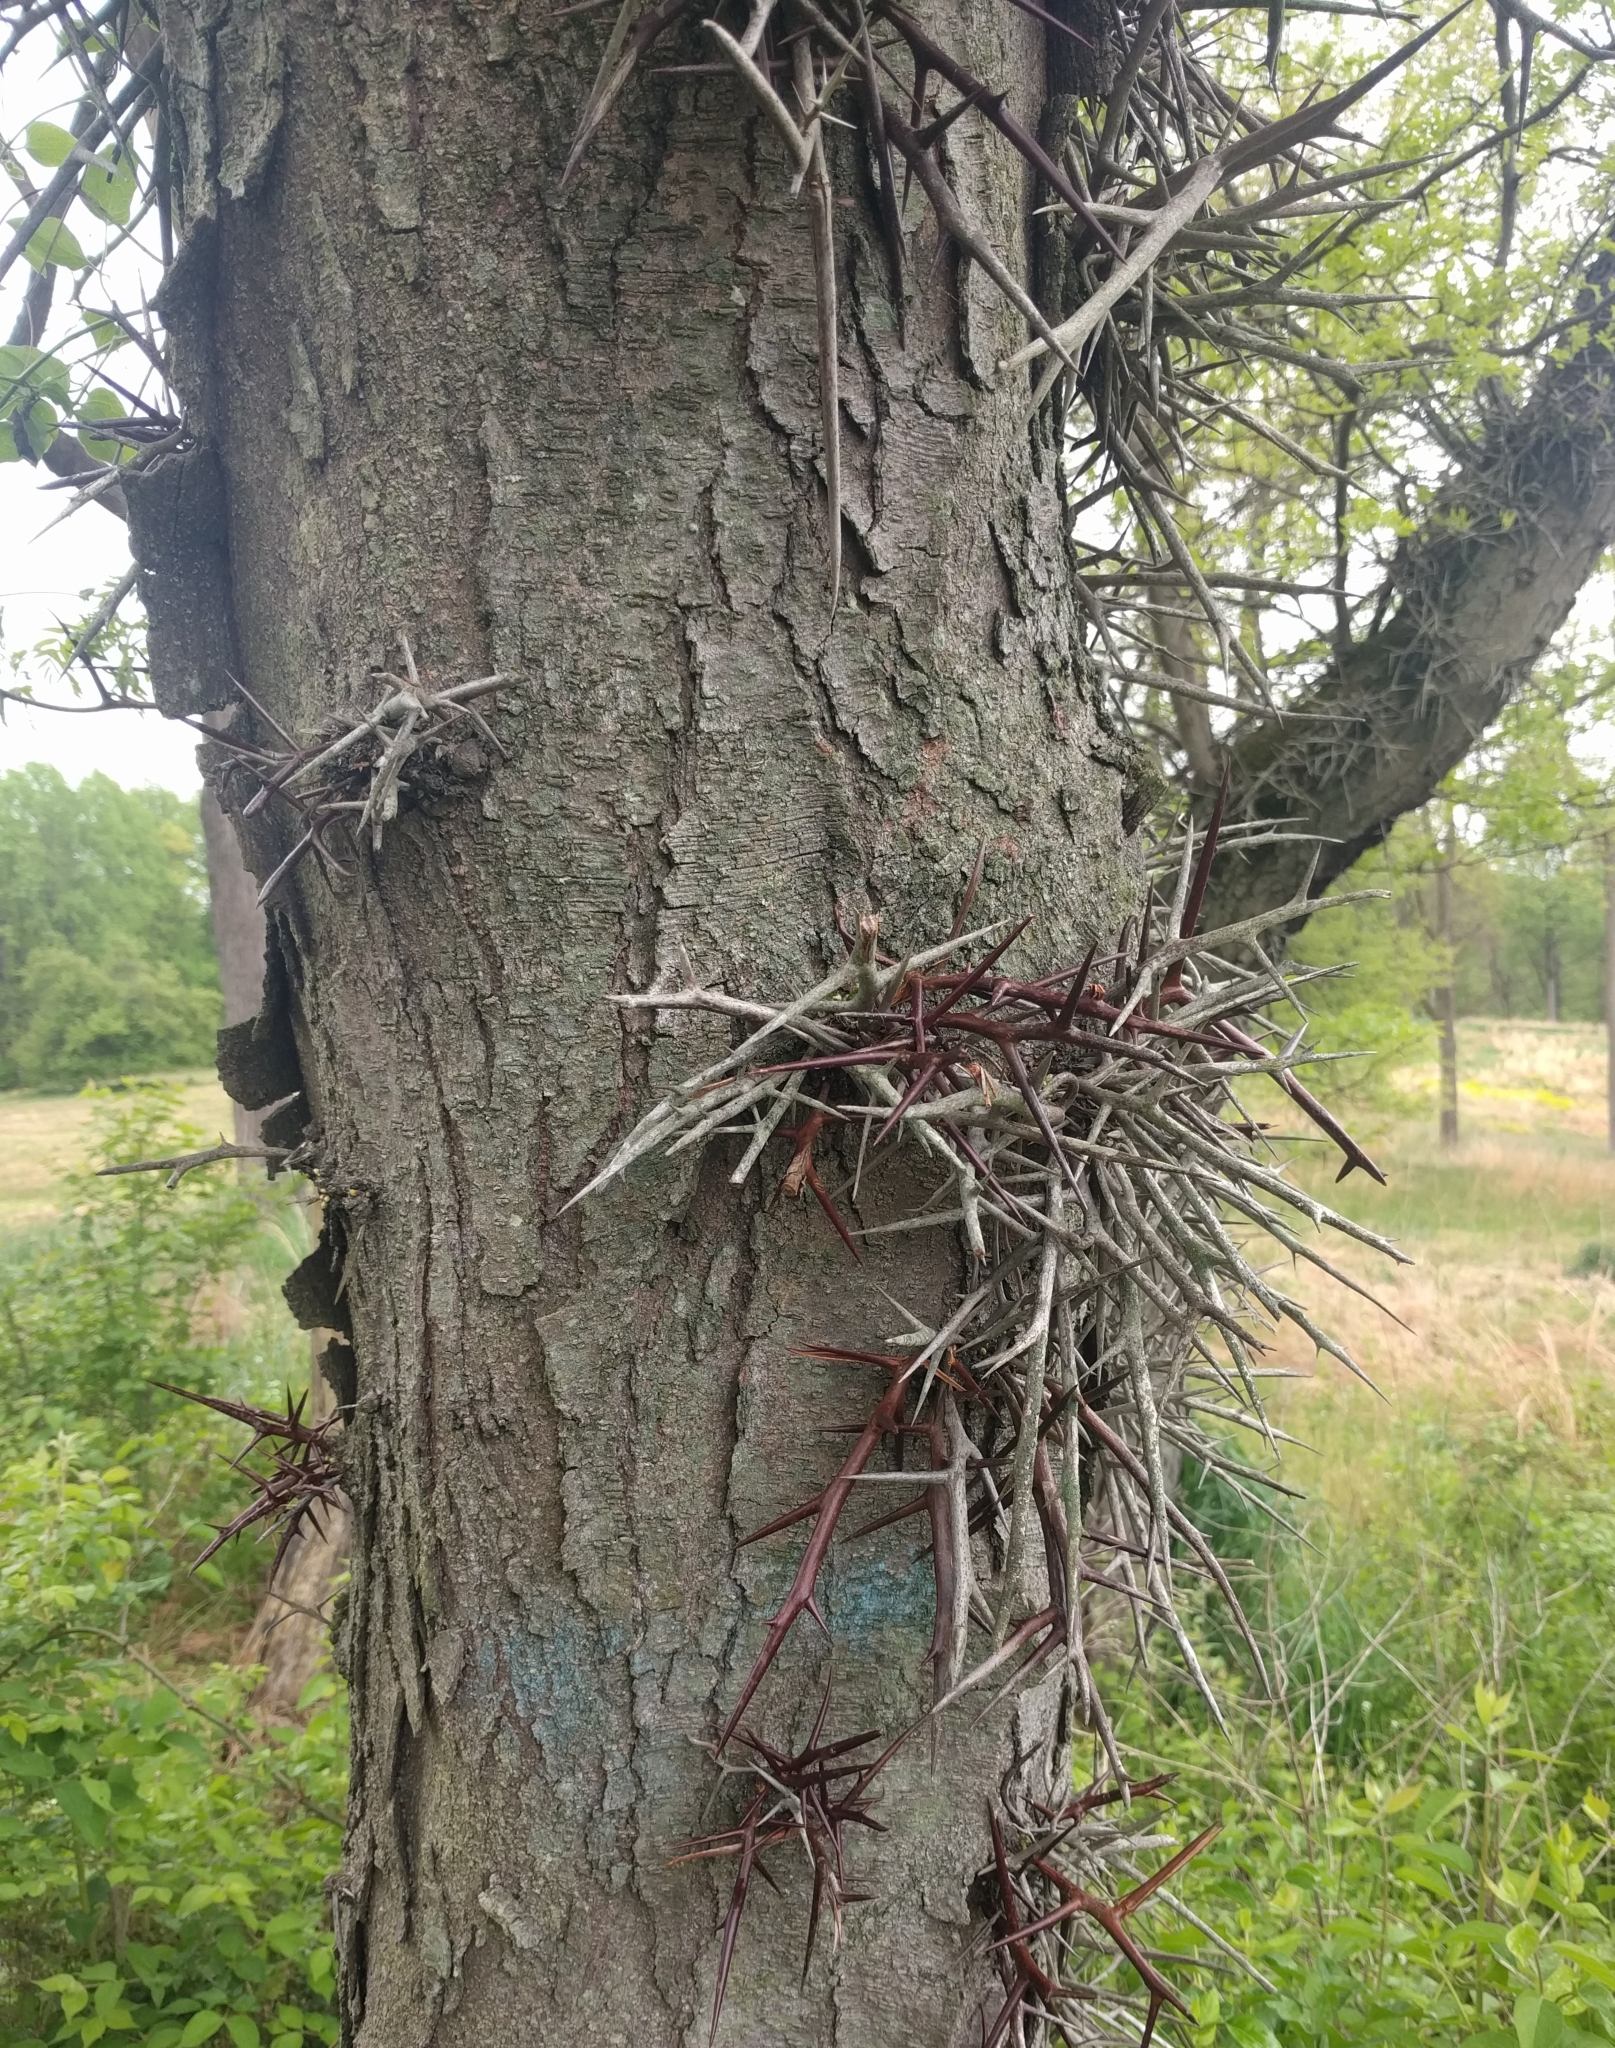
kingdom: Plantae
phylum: Tracheophyta
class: Magnoliopsida
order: Fabales
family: Fabaceae
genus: Gleditsia
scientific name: Gleditsia triacanthos
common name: Common honeylocust
